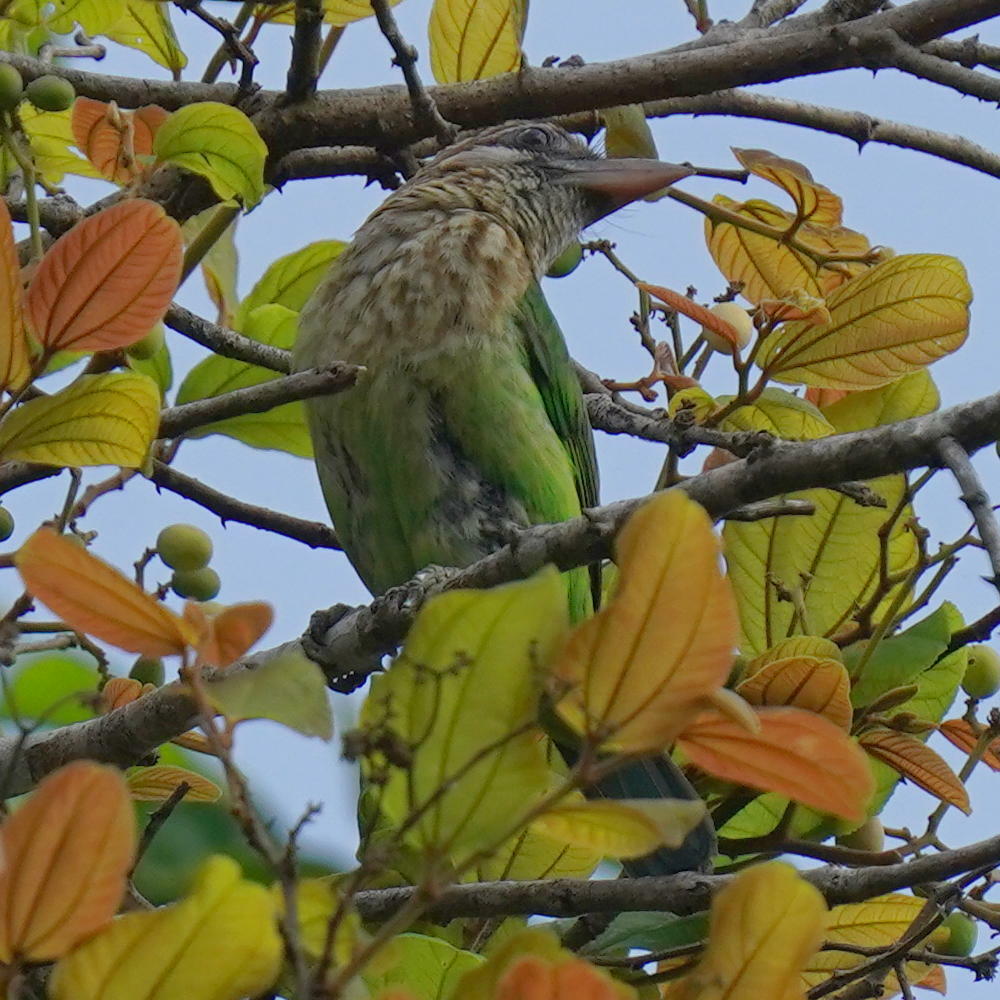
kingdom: Animalia
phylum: Chordata
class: Aves
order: Piciformes
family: Megalaimidae
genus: Psilopogon
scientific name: Psilopogon viridis
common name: White-cheeked barbet
